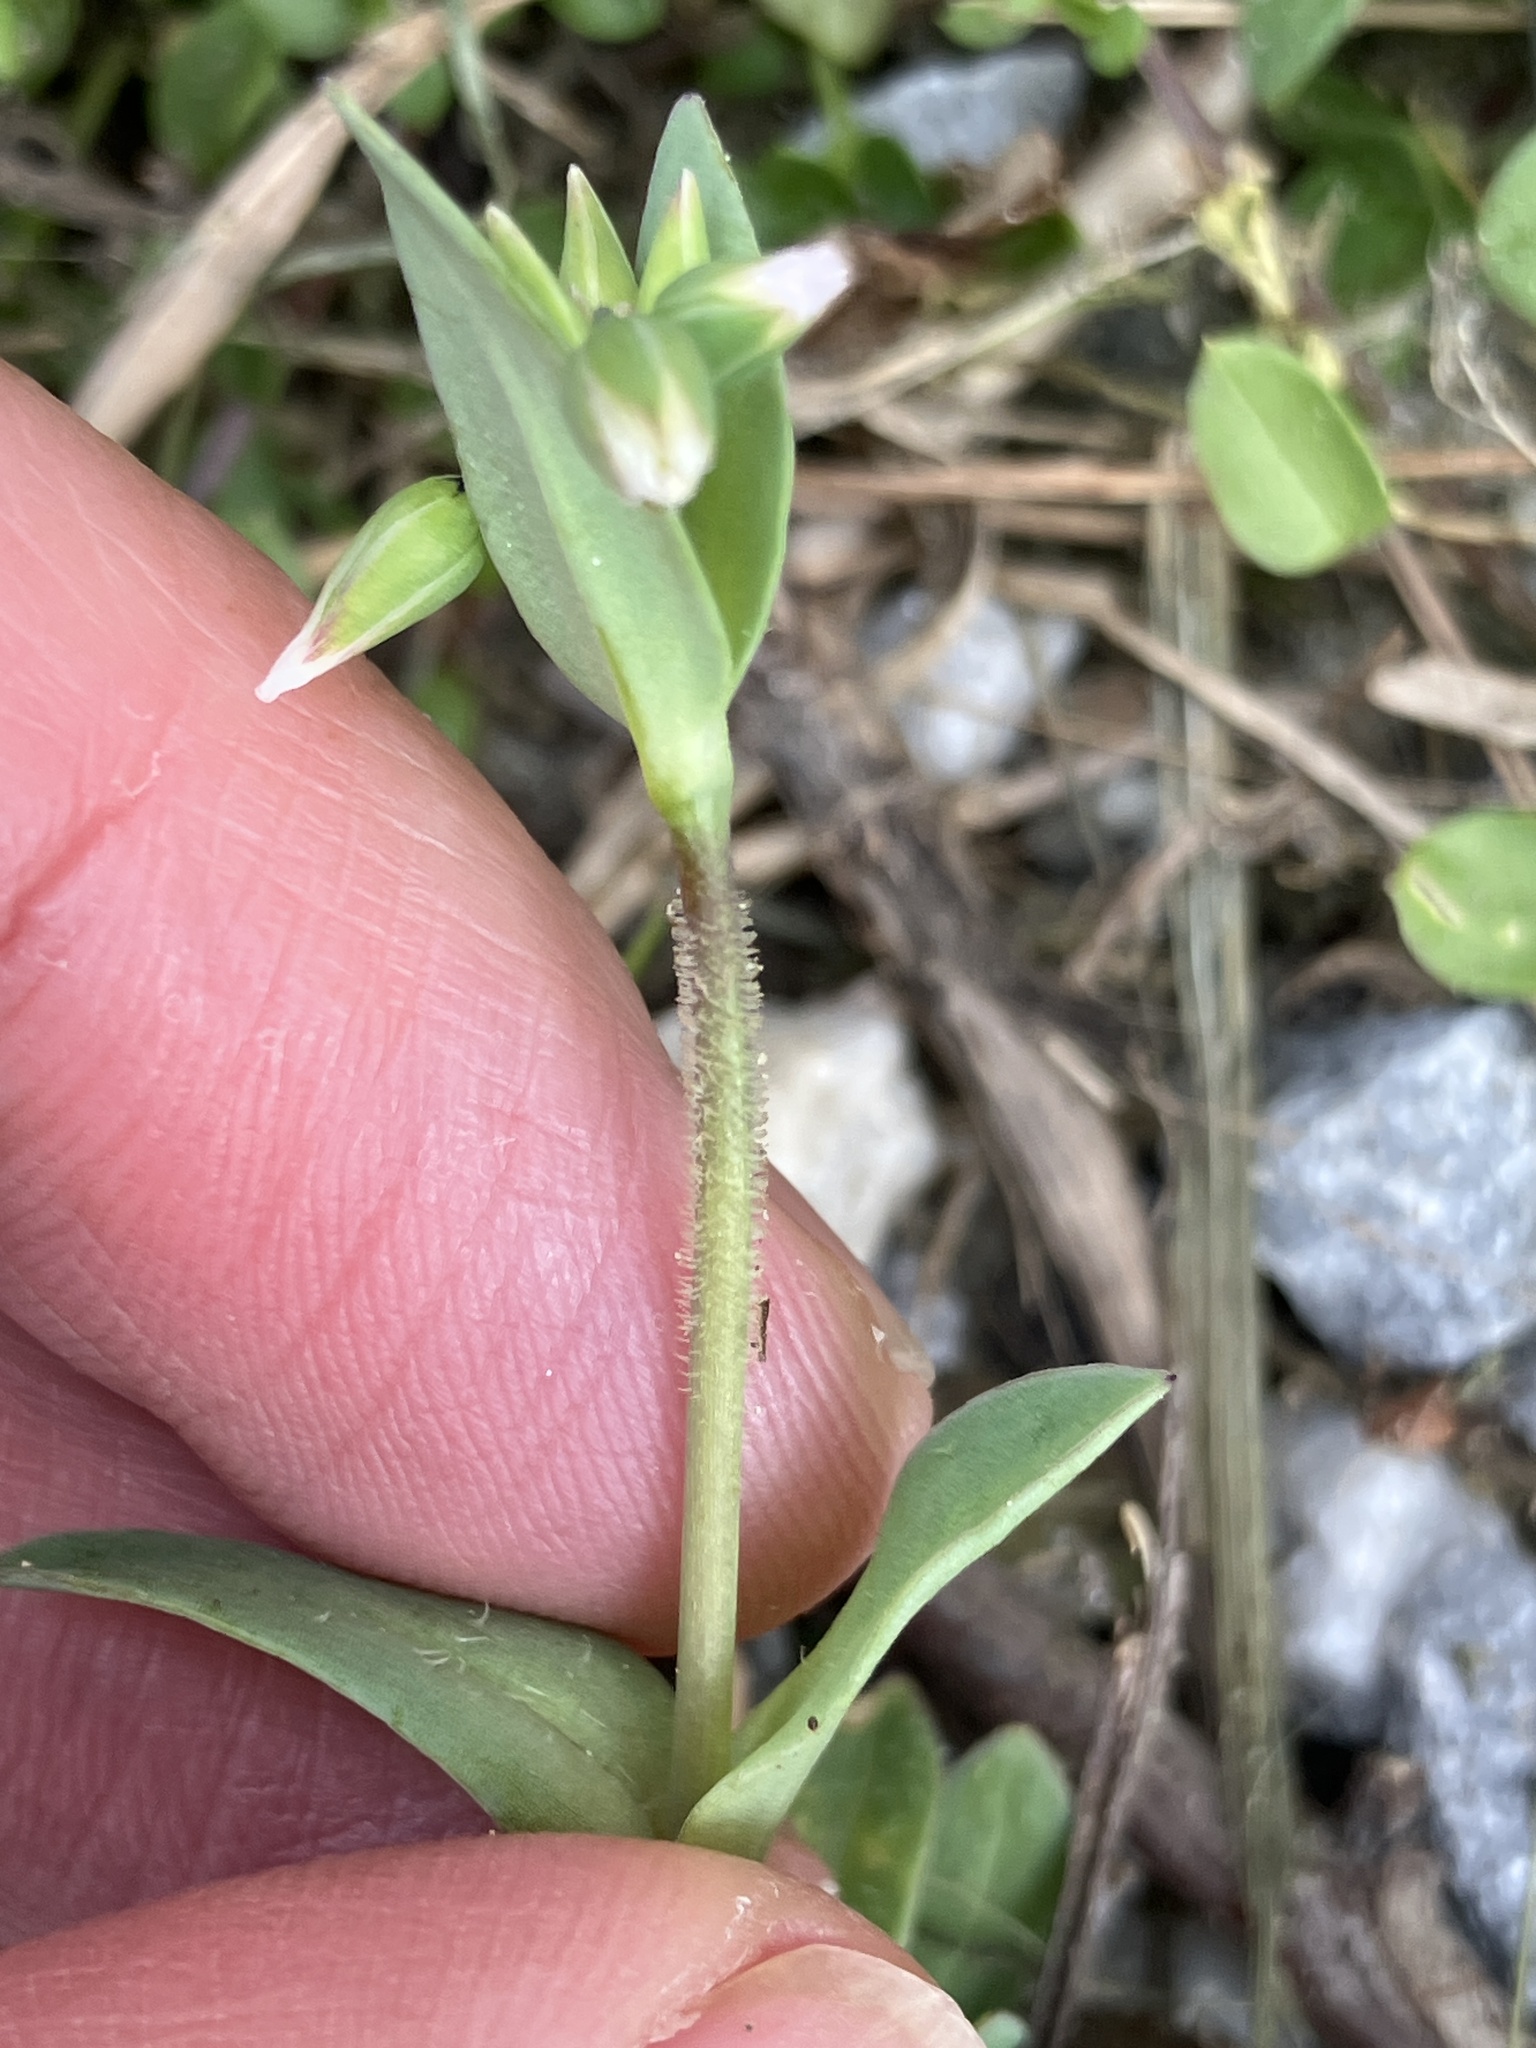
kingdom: Plantae
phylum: Tracheophyta
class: Magnoliopsida
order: Caryophyllales
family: Caryophyllaceae
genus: Holosteum
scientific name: Holosteum umbellatum
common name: Jagged chickweed
